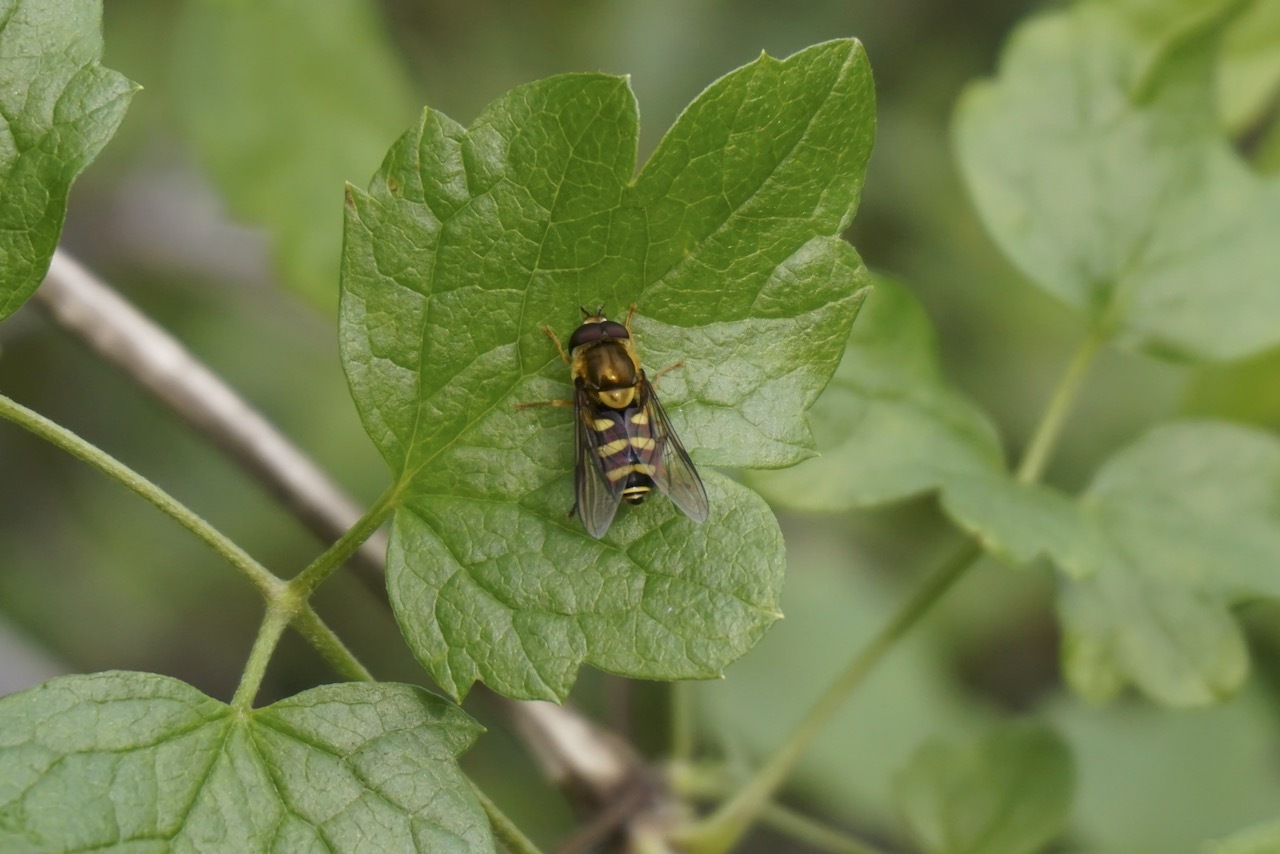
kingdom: Animalia
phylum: Arthropoda
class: Insecta
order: Diptera
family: Syrphidae
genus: Syrphus
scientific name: Syrphus opinator
